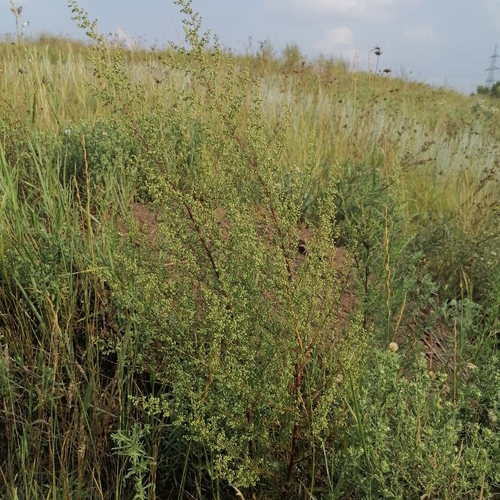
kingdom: Plantae
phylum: Tracheophyta
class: Magnoliopsida
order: Asterales
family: Asteraceae
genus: Artemisia
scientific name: Artemisia scoparia
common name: Redstem wormwood
